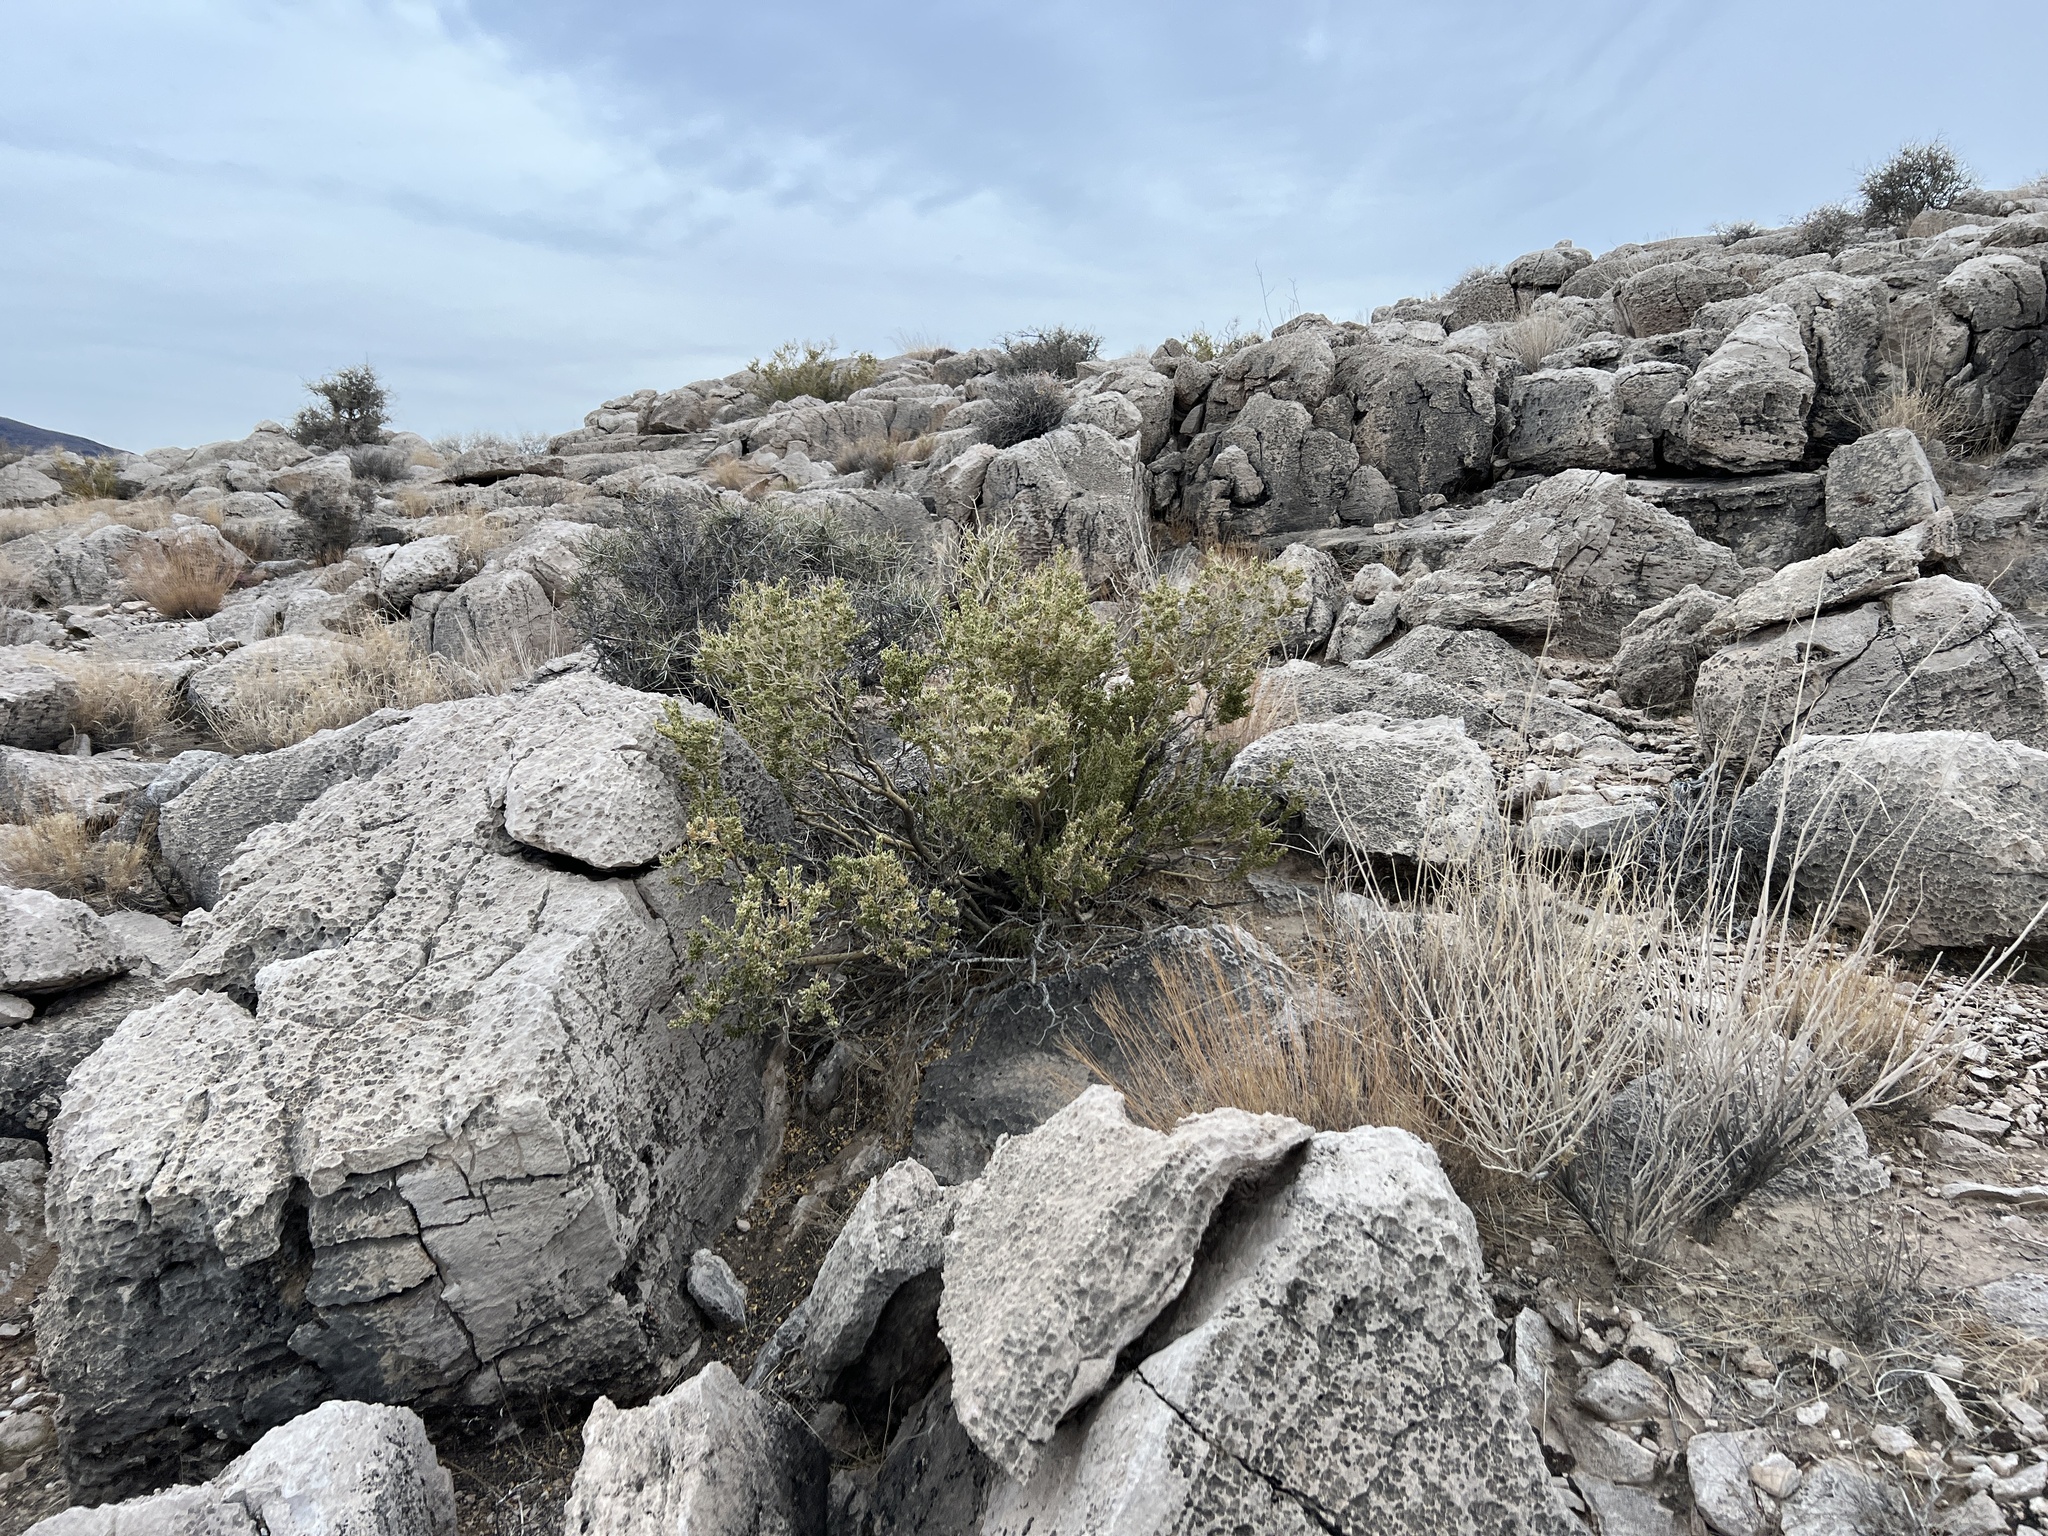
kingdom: Plantae
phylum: Tracheophyta
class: Magnoliopsida
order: Celastrales
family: Celastraceae
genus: Mortonia
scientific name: Mortonia utahensis
